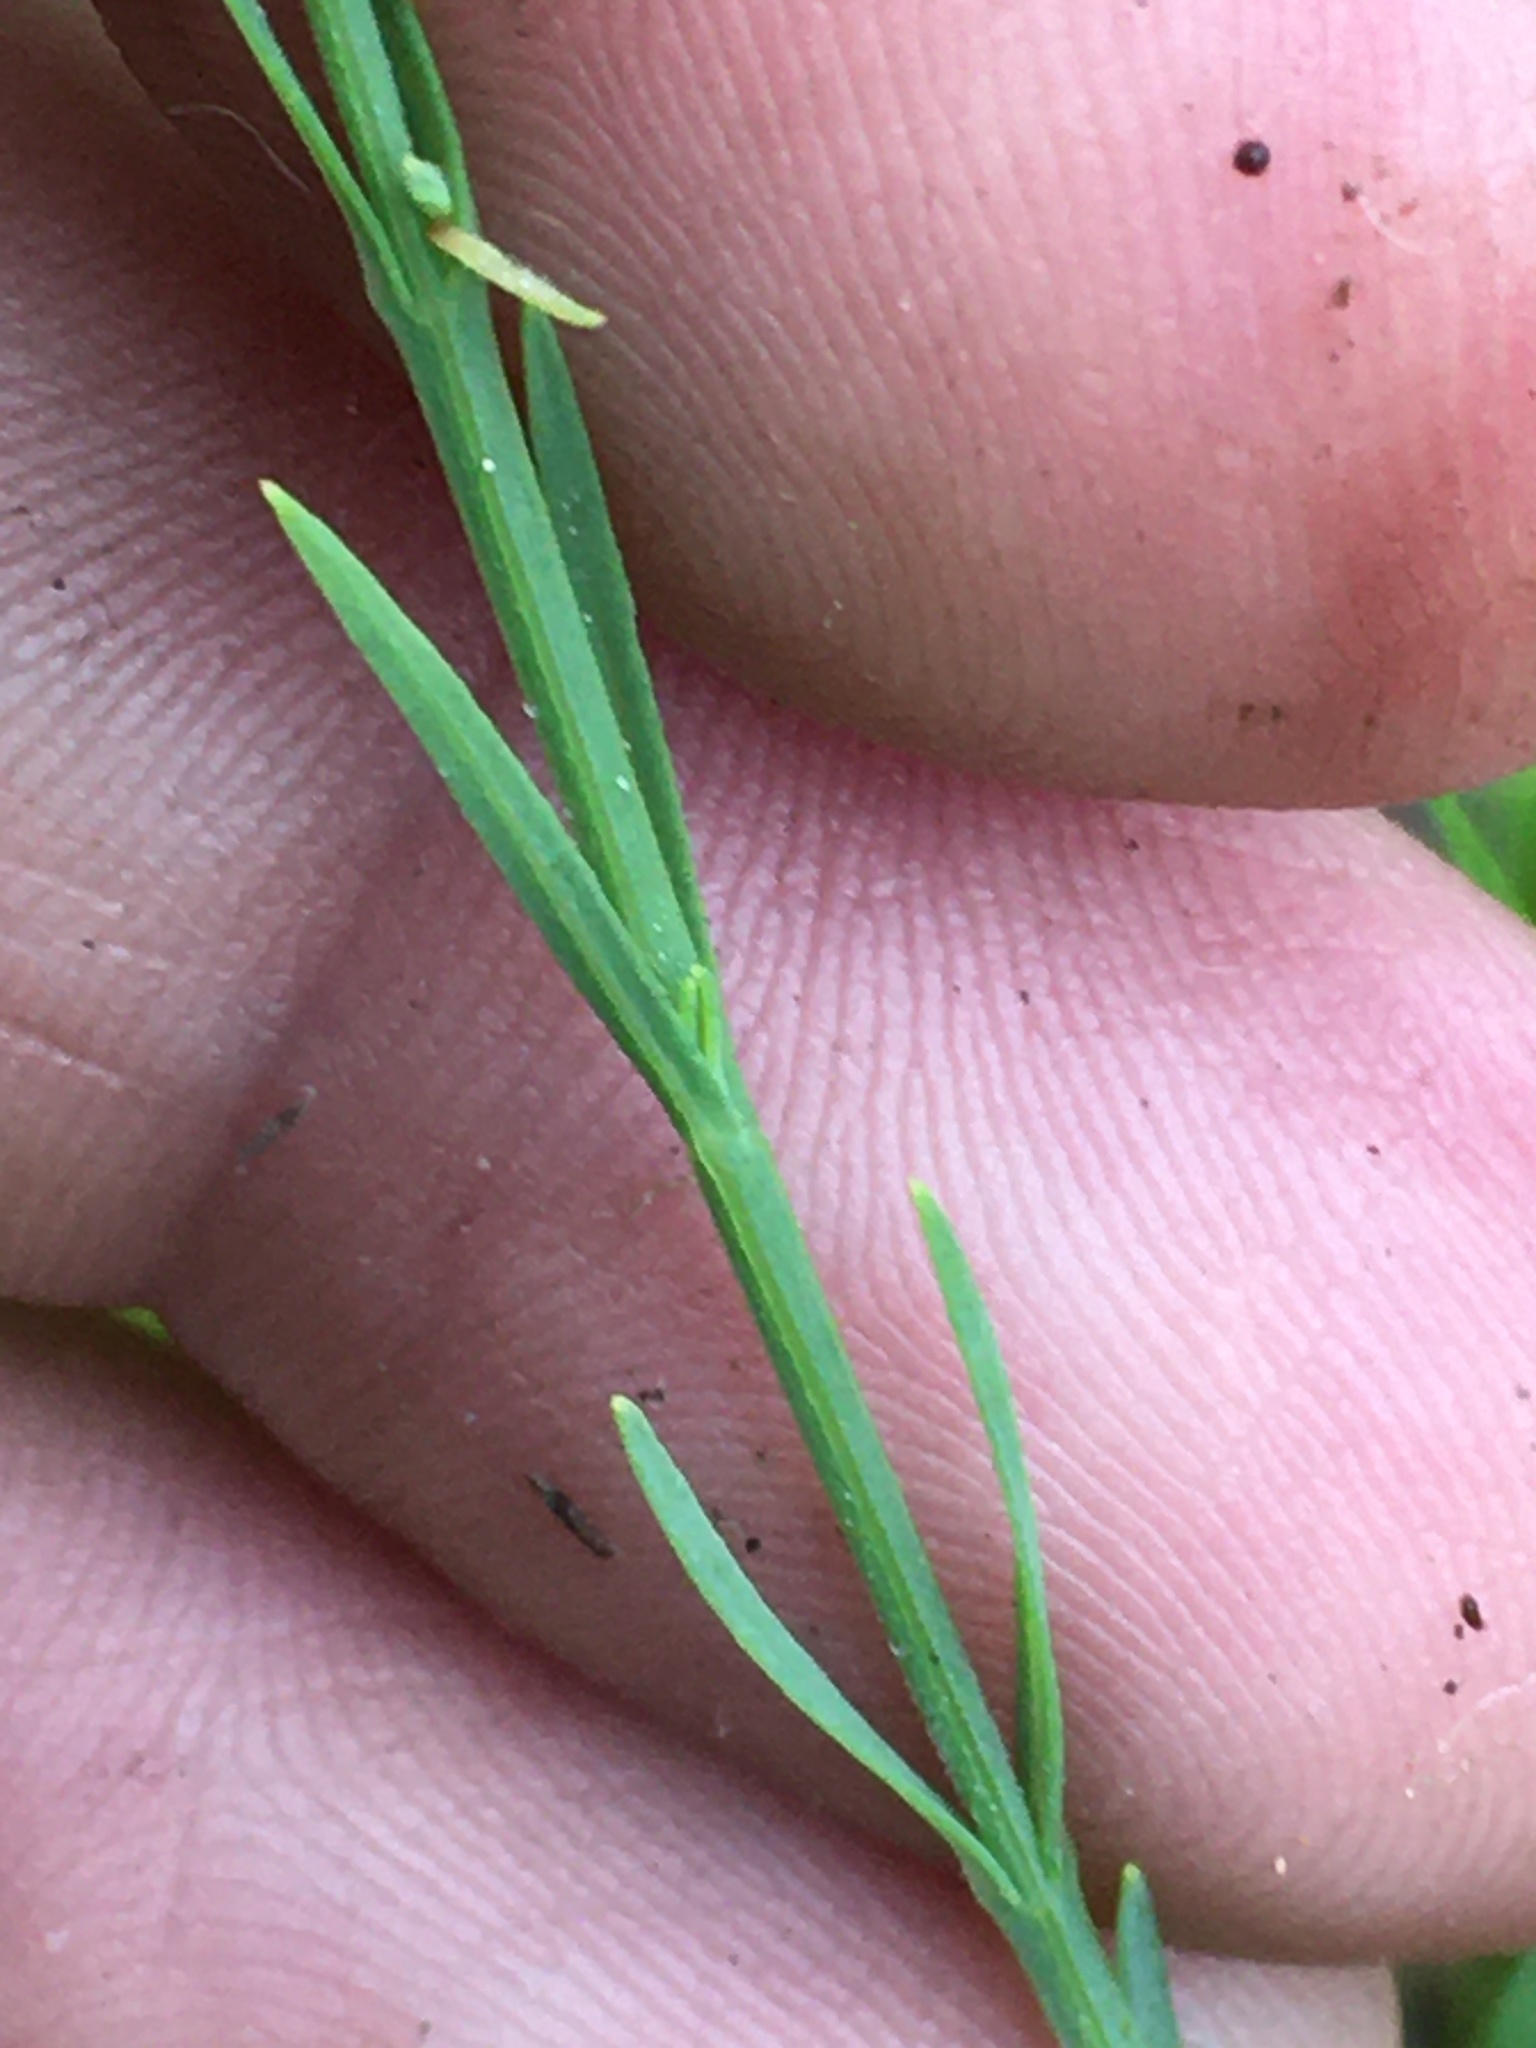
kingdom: Plantae
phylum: Tracheophyta
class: Magnoliopsida
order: Malpighiales
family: Hypericaceae
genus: Hypericum
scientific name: Hypericum drummondii
